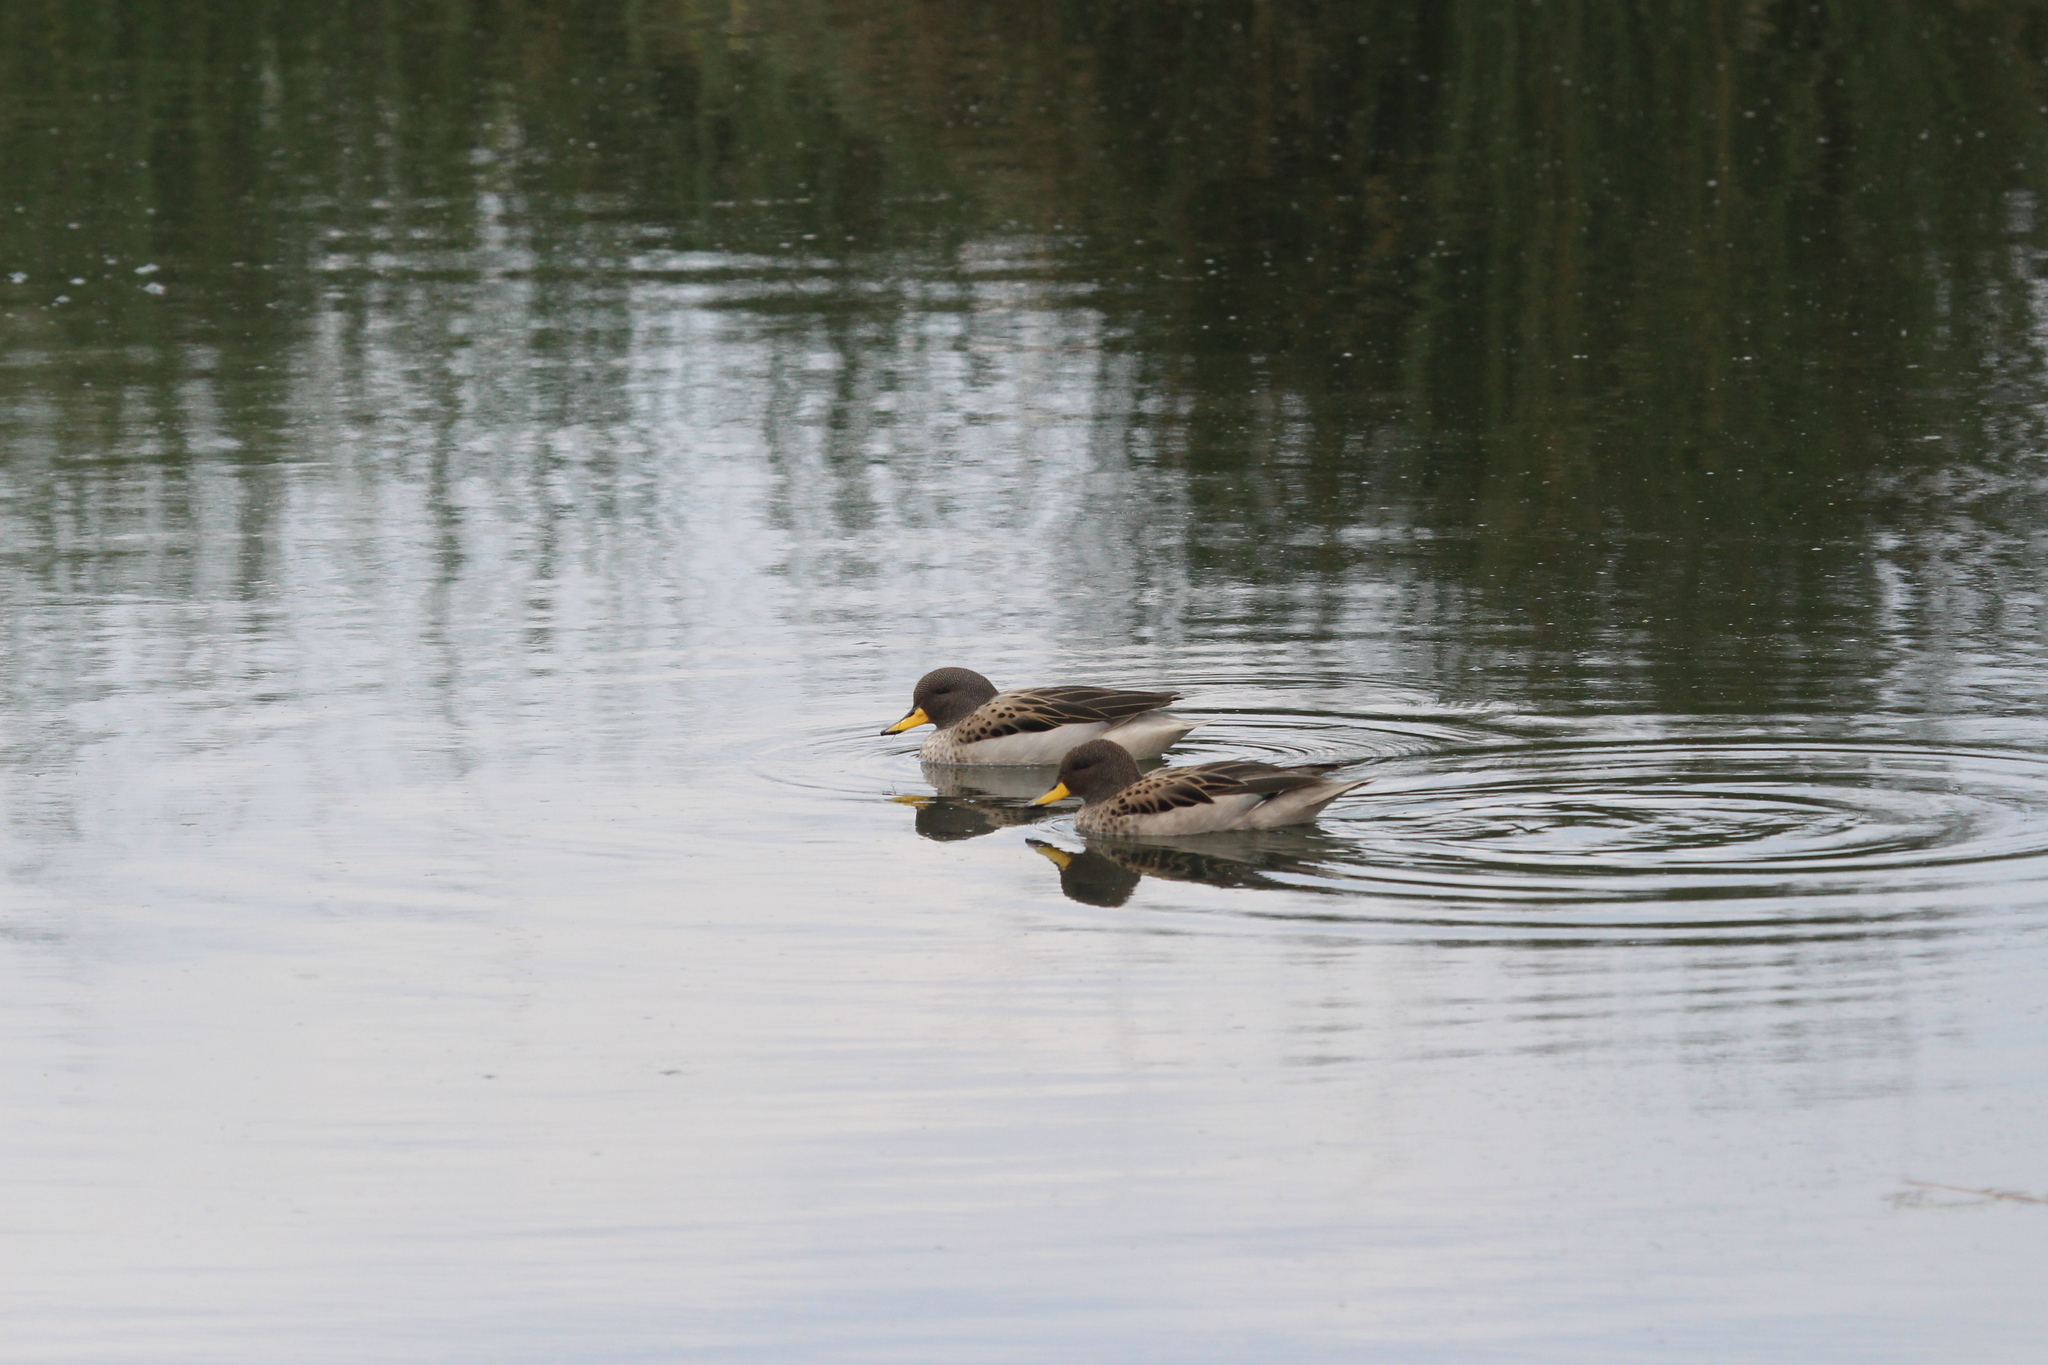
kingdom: Animalia
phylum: Chordata
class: Aves
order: Anseriformes
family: Anatidae
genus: Anas
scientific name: Anas flavirostris
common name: Yellow-billed teal
